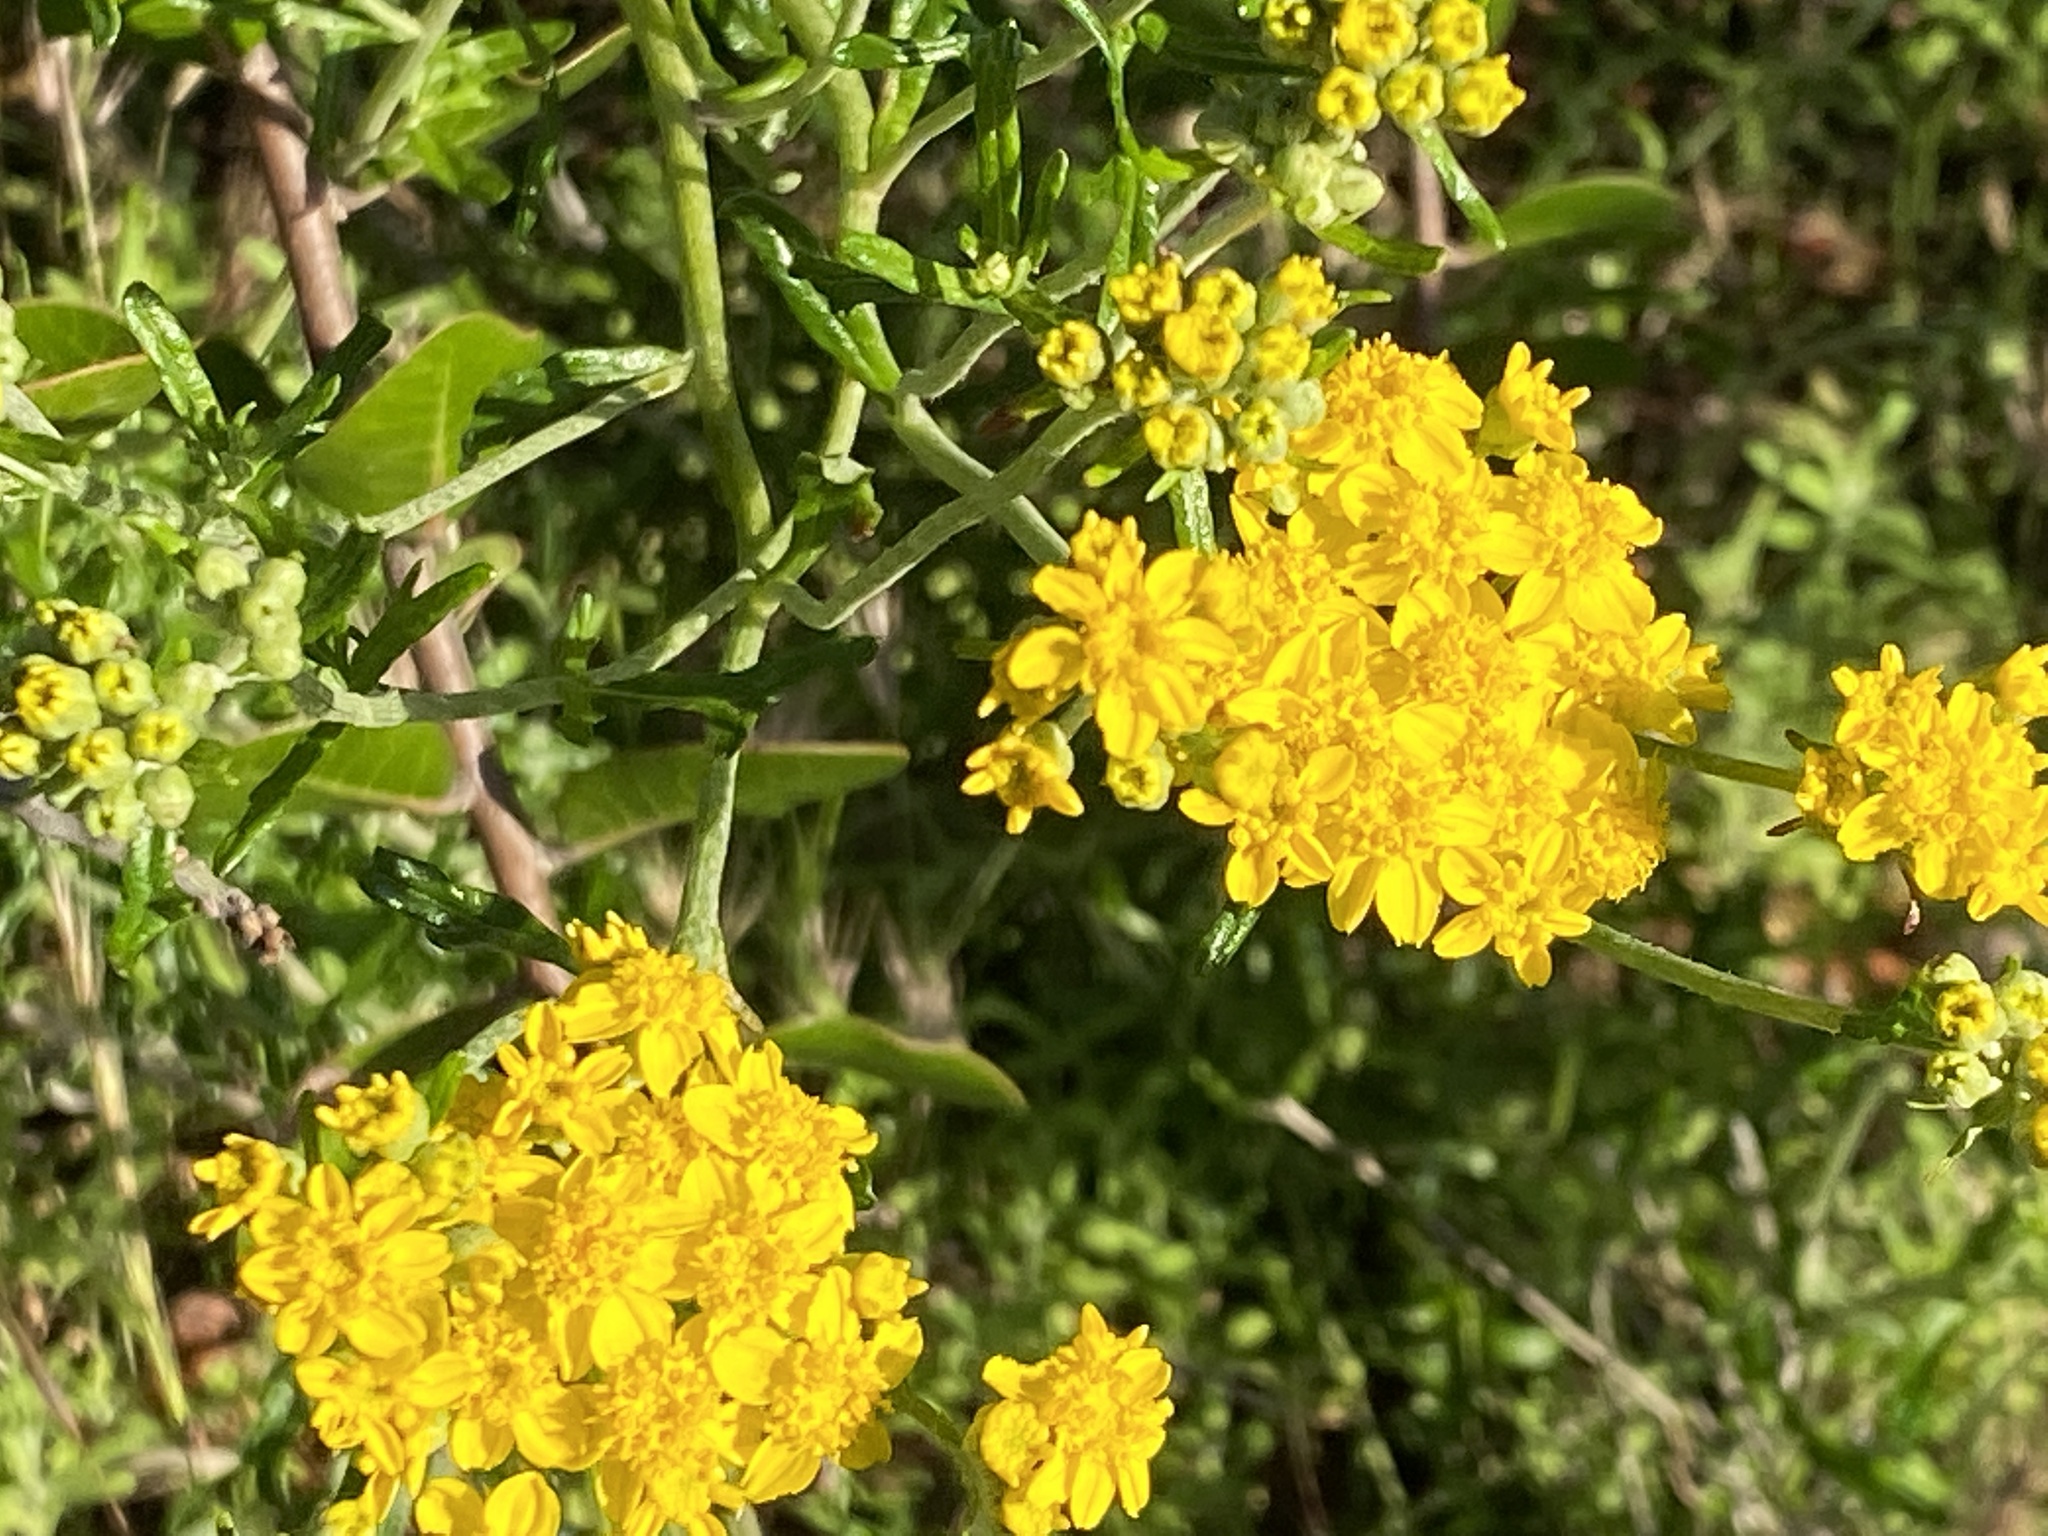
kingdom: Plantae
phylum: Tracheophyta
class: Magnoliopsida
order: Asterales
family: Asteraceae
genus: Eriophyllum
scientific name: Eriophyllum confertiflorum
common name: Golden-yarrow
